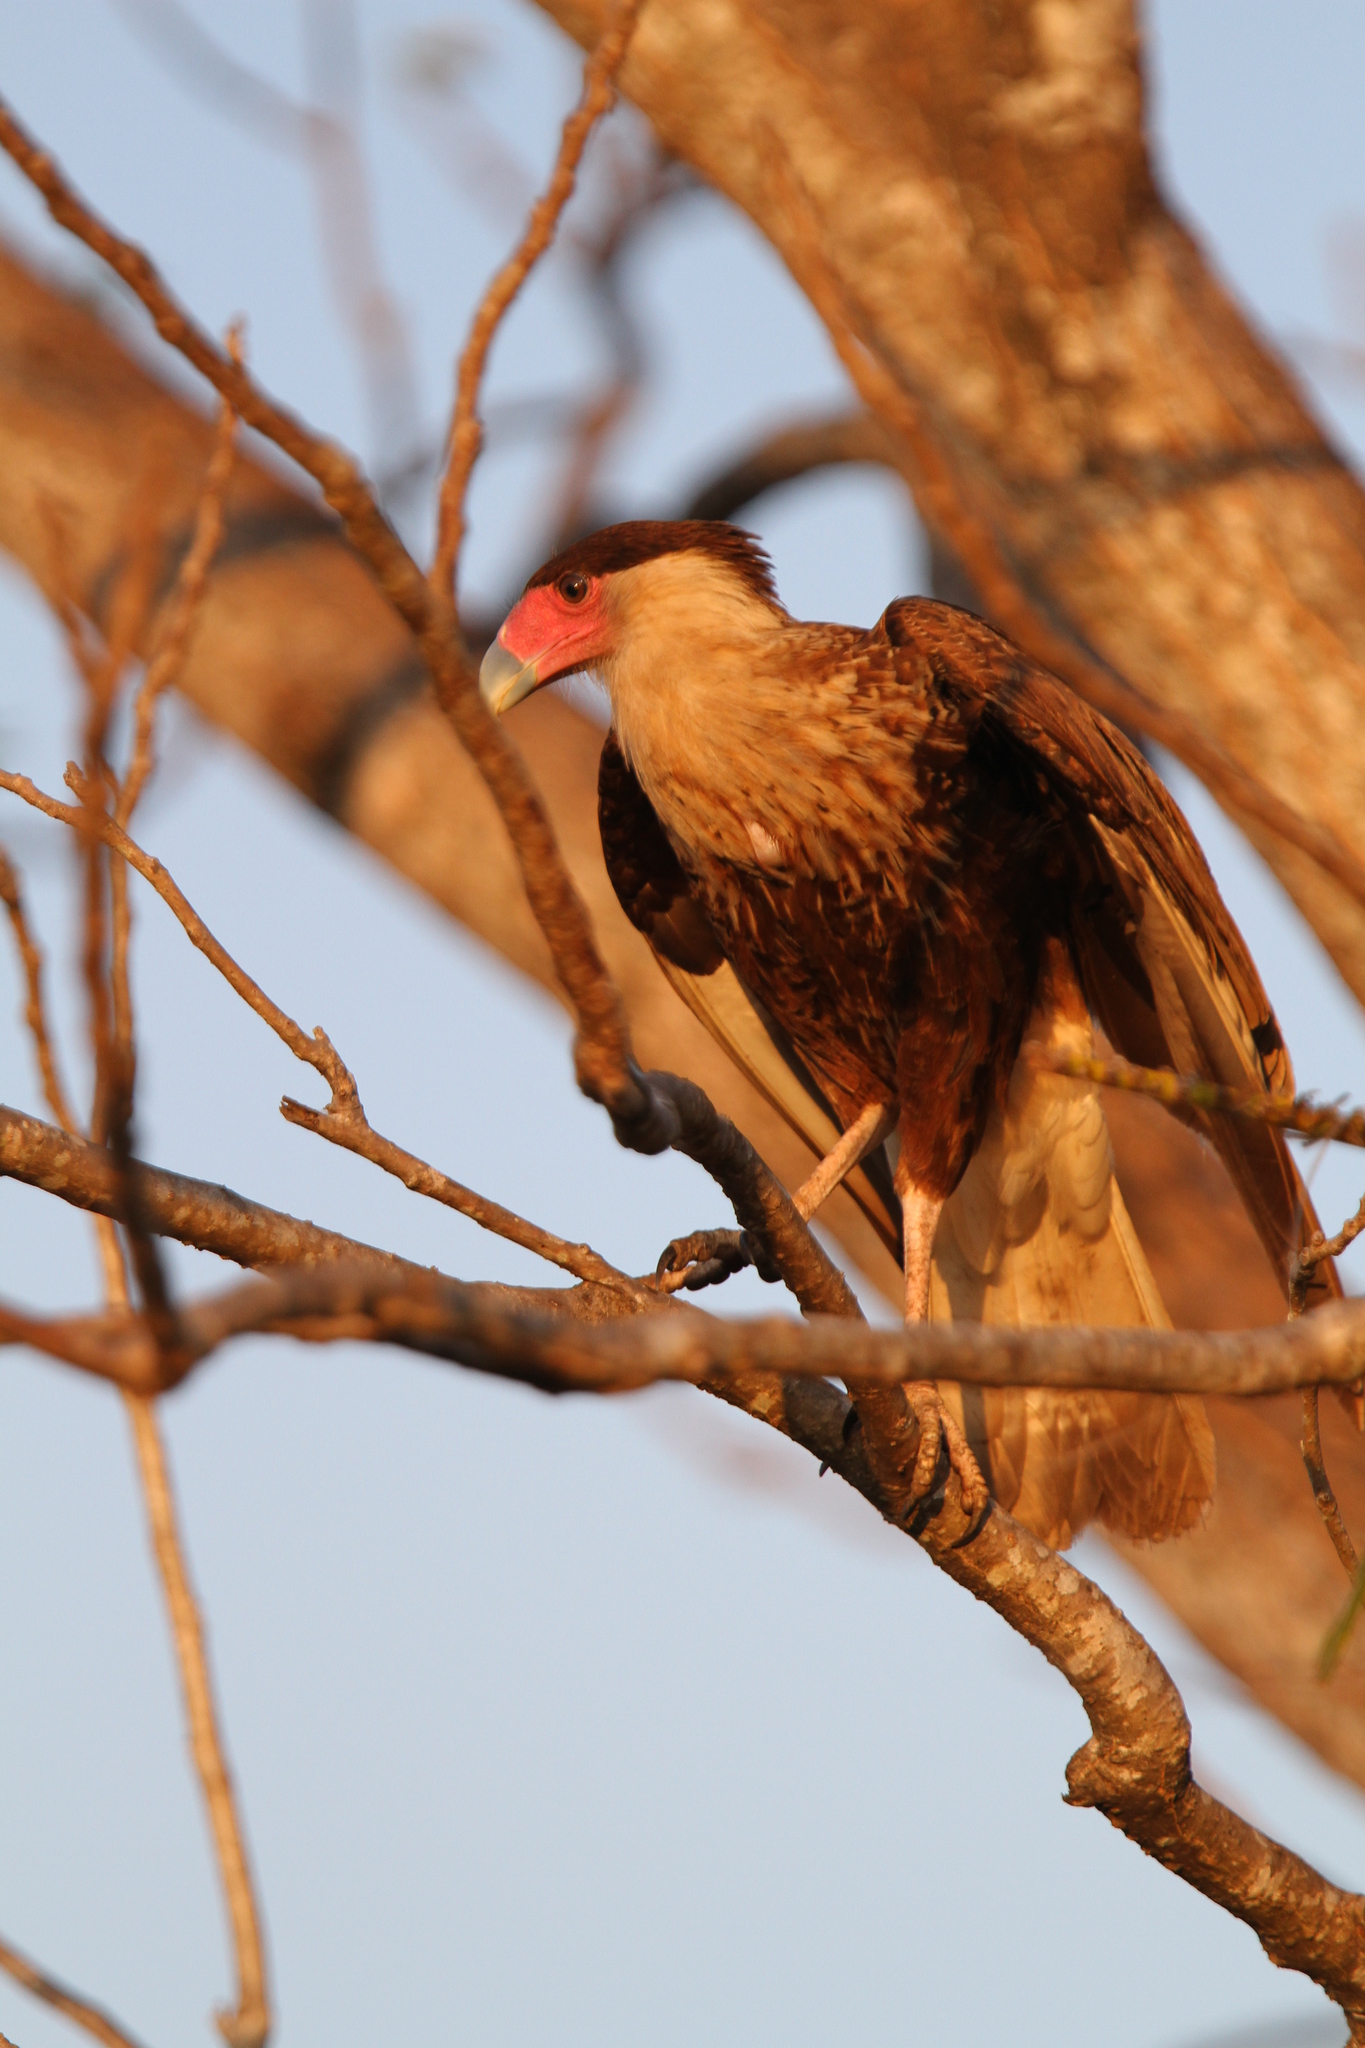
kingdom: Animalia
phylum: Chordata
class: Aves
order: Falconiformes
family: Falconidae
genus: Caracara
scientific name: Caracara plancus
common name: Southern caracara
